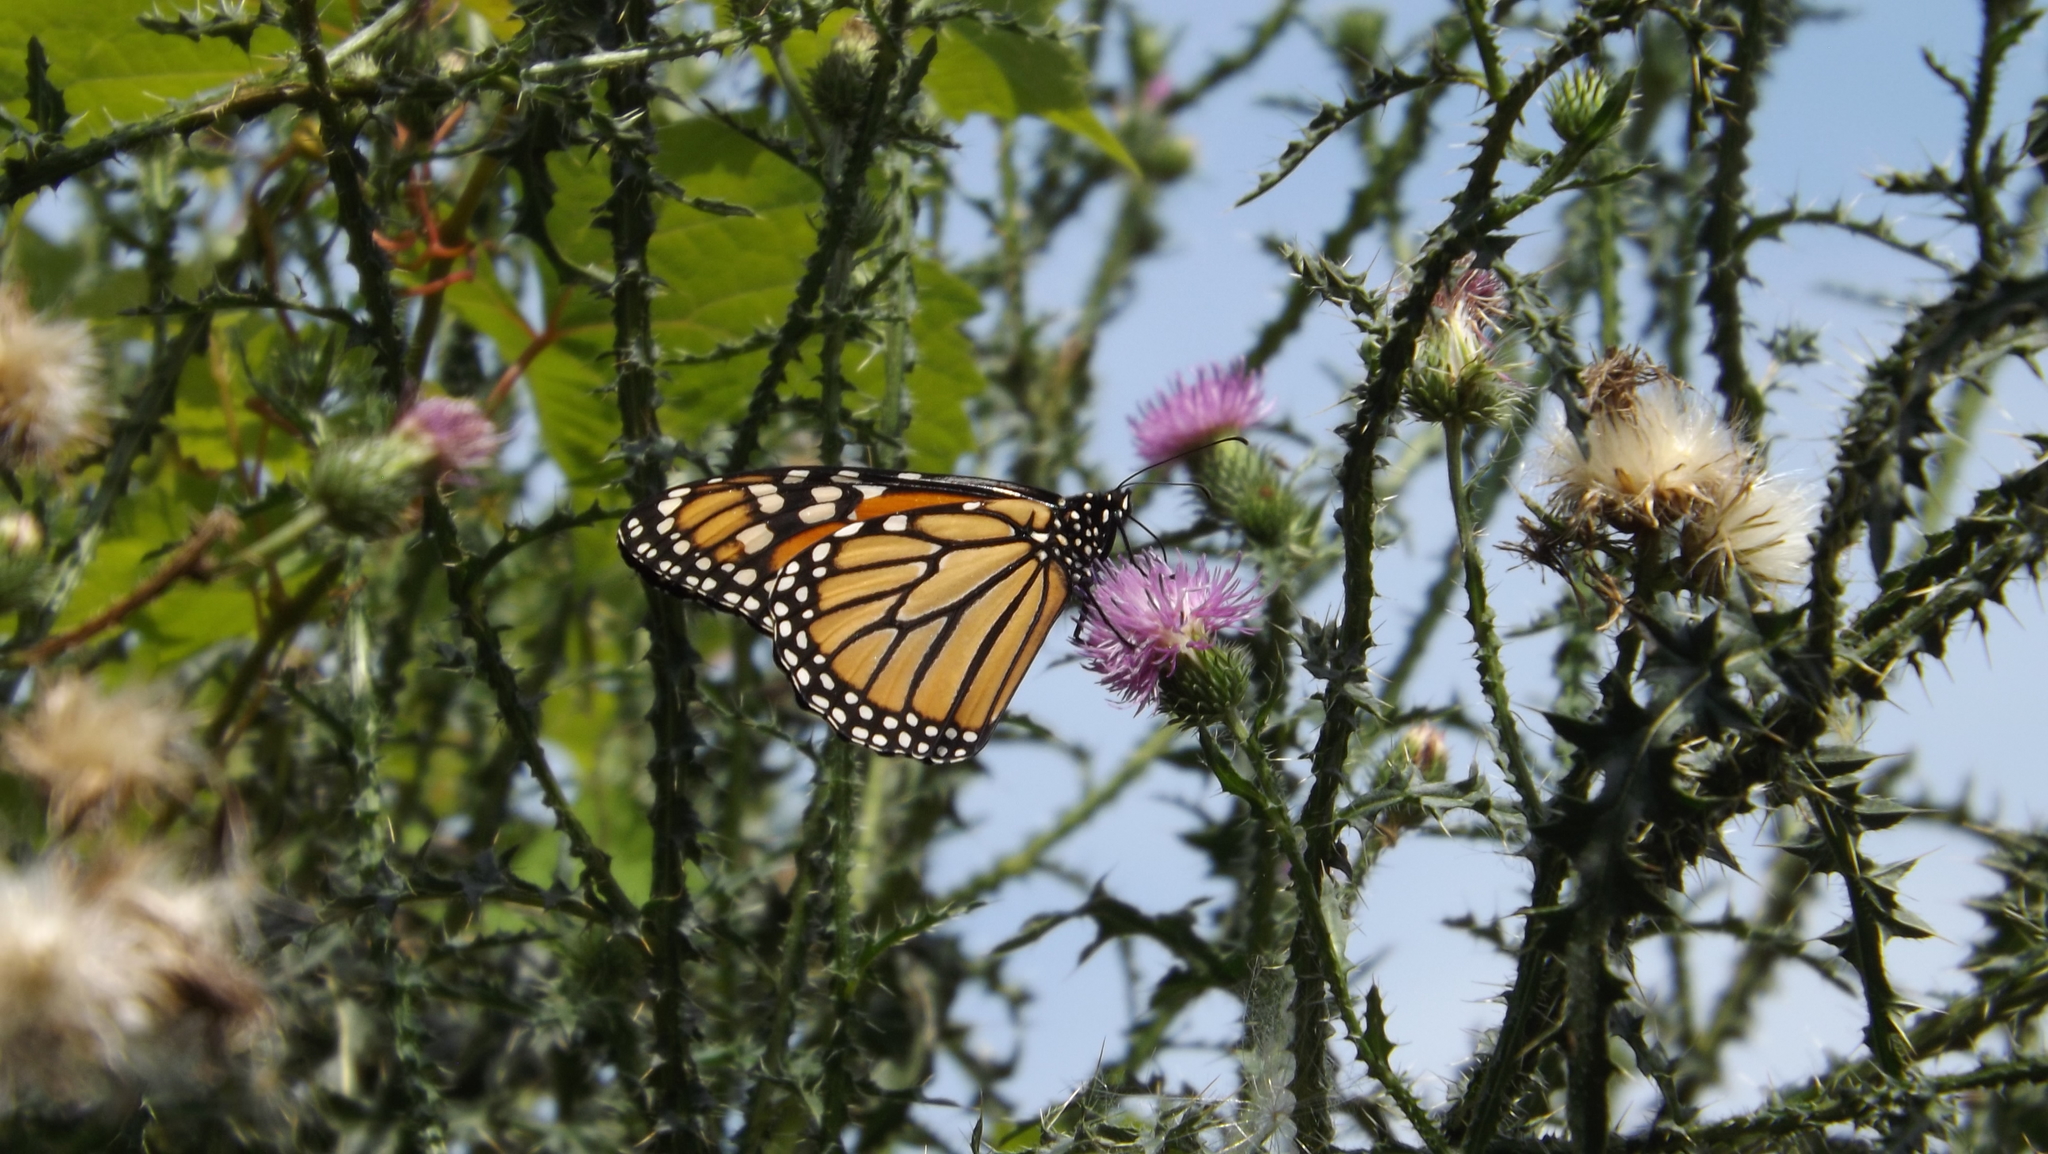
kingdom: Animalia
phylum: Arthropoda
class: Insecta
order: Lepidoptera
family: Nymphalidae
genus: Danaus
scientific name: Danaus plexippus
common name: Monarch
